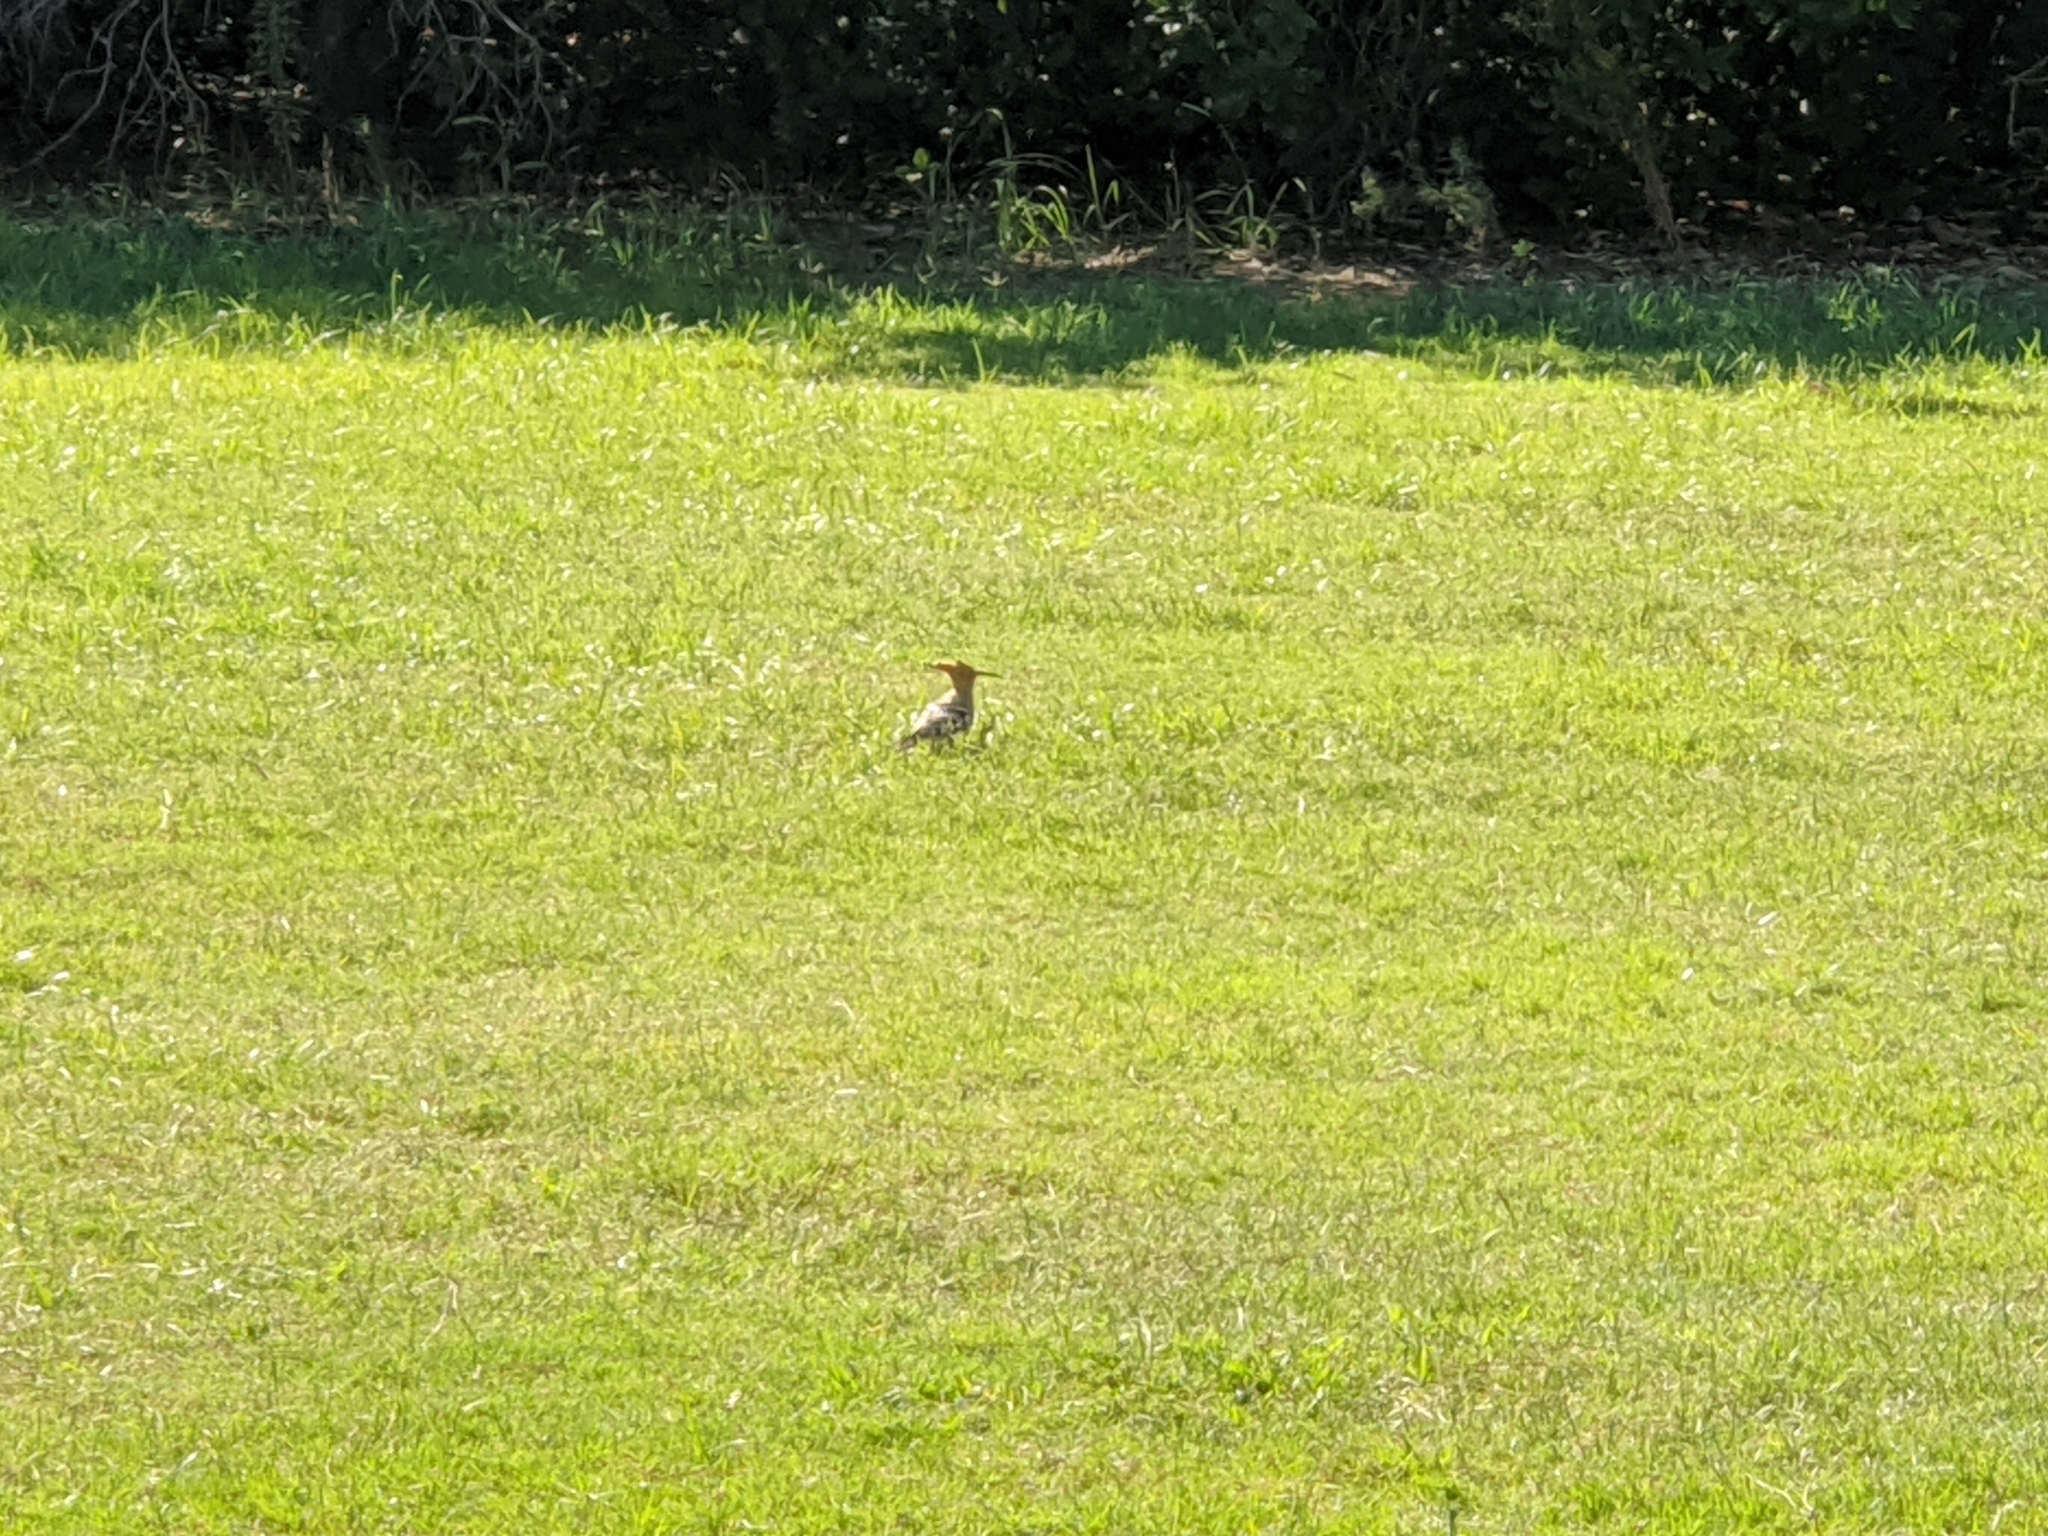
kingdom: Animalia
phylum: Chordata
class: Aves
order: Bucerotiformes
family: Upupidae
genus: Upupa
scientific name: Upupa epops
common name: Eurasian hoopoe
